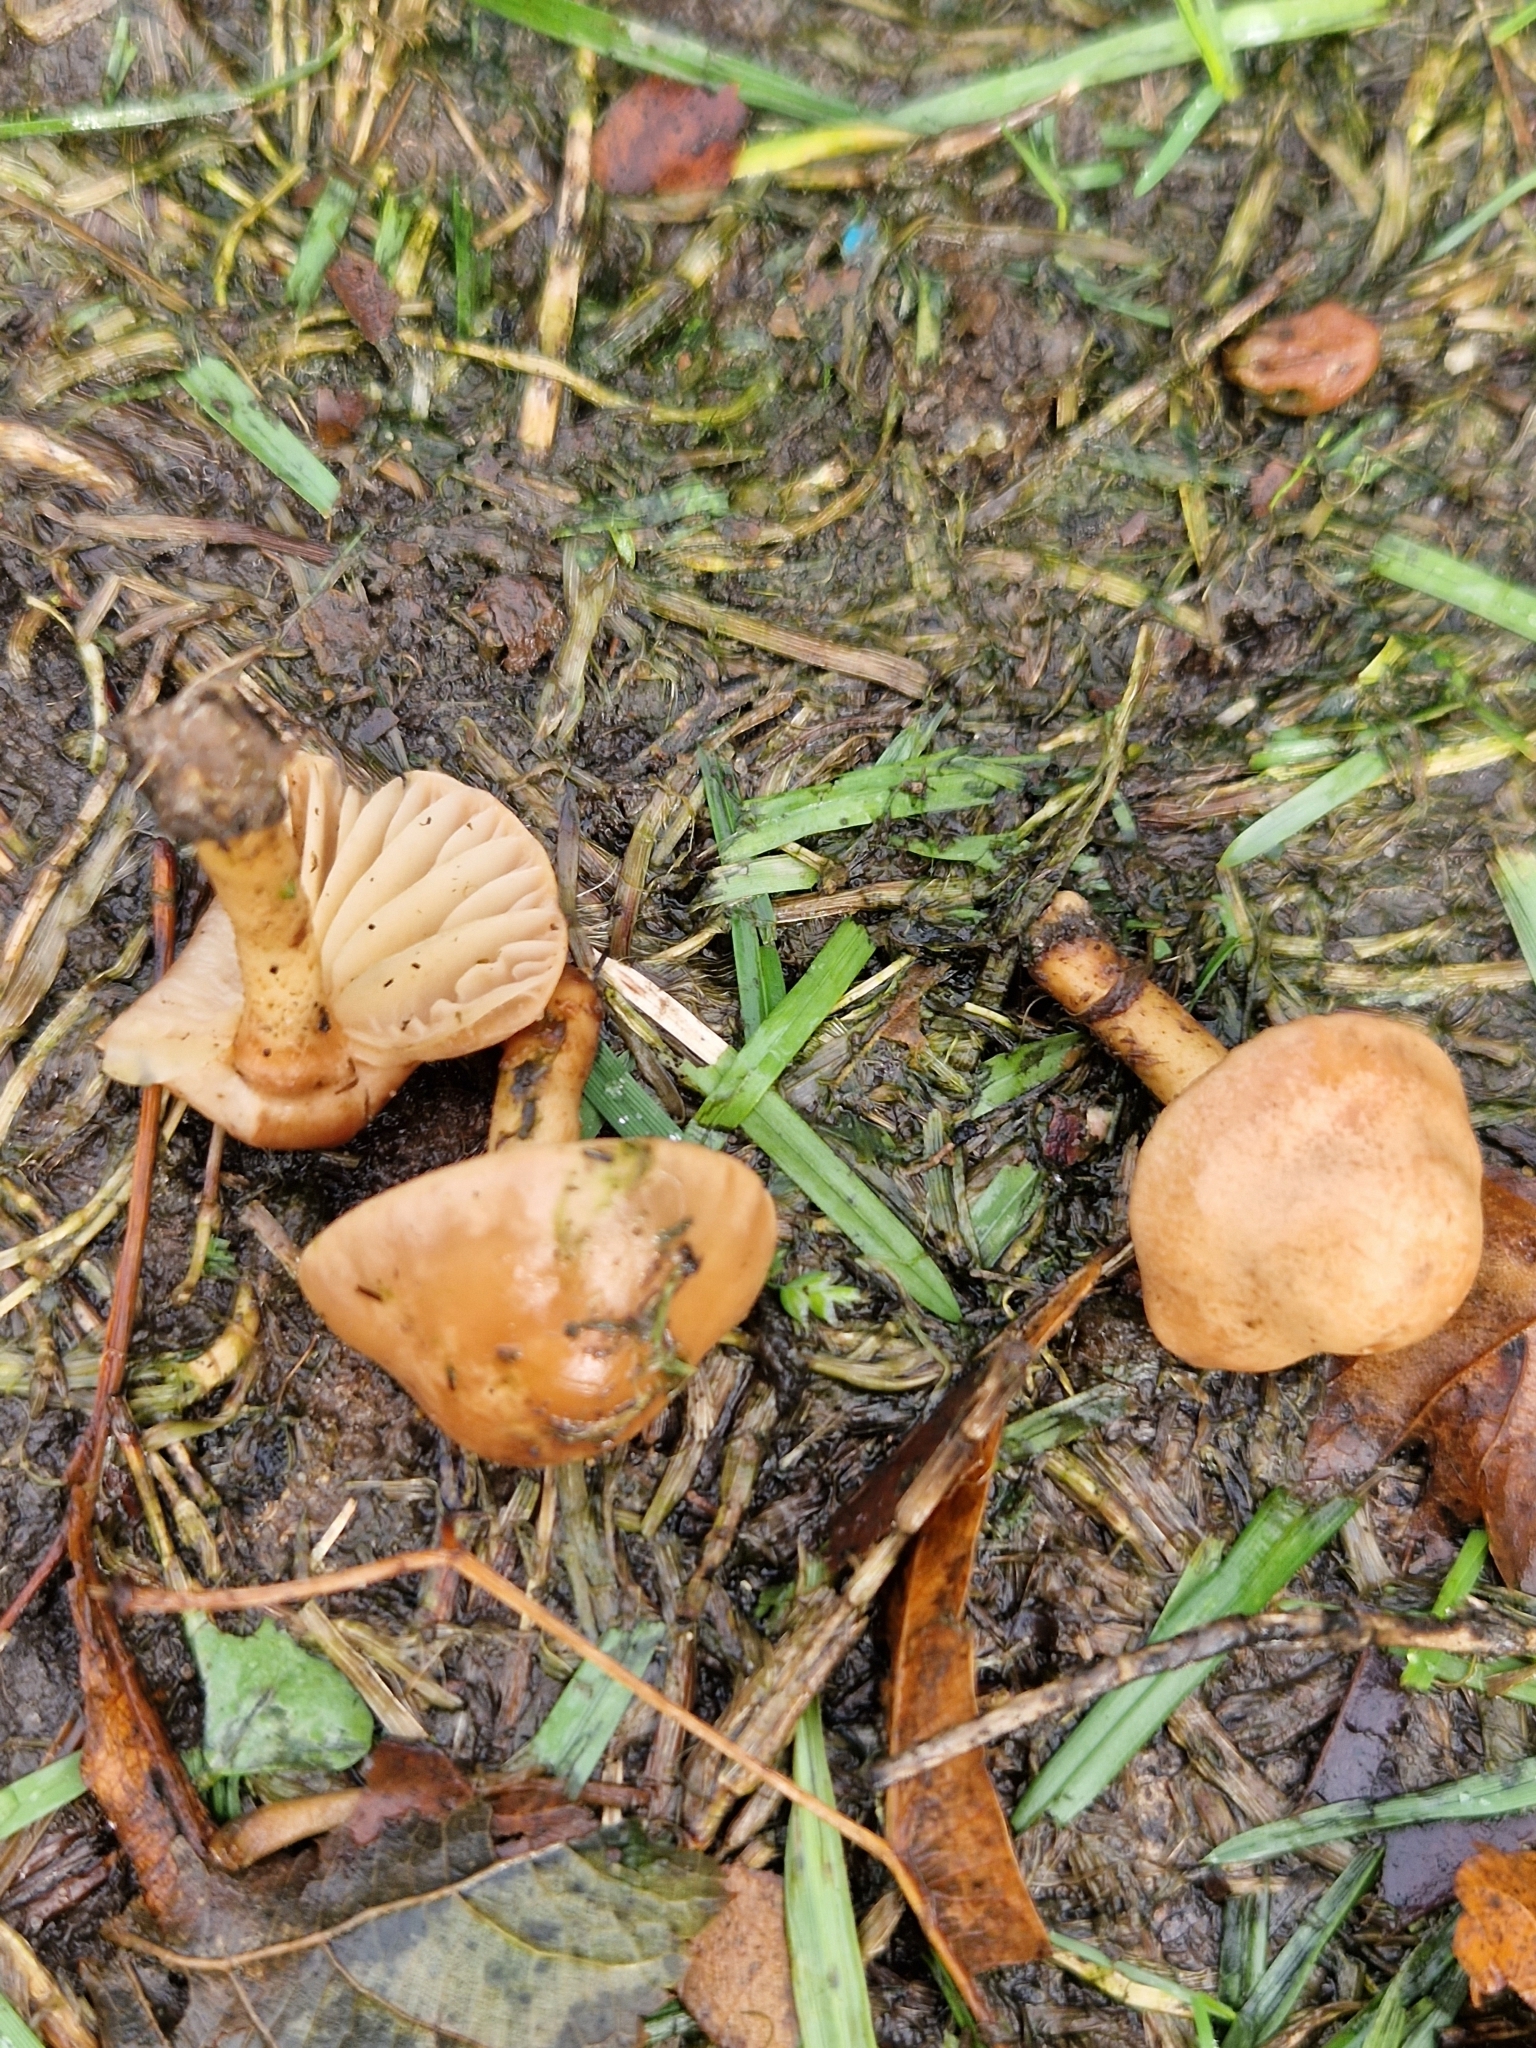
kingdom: Fungi
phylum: Basidiomycota
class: Agaricomycetes
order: Agaricales
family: Marasmiaceae
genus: Marasmius
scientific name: Marasmius oreades
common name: Fairy ring champignon
